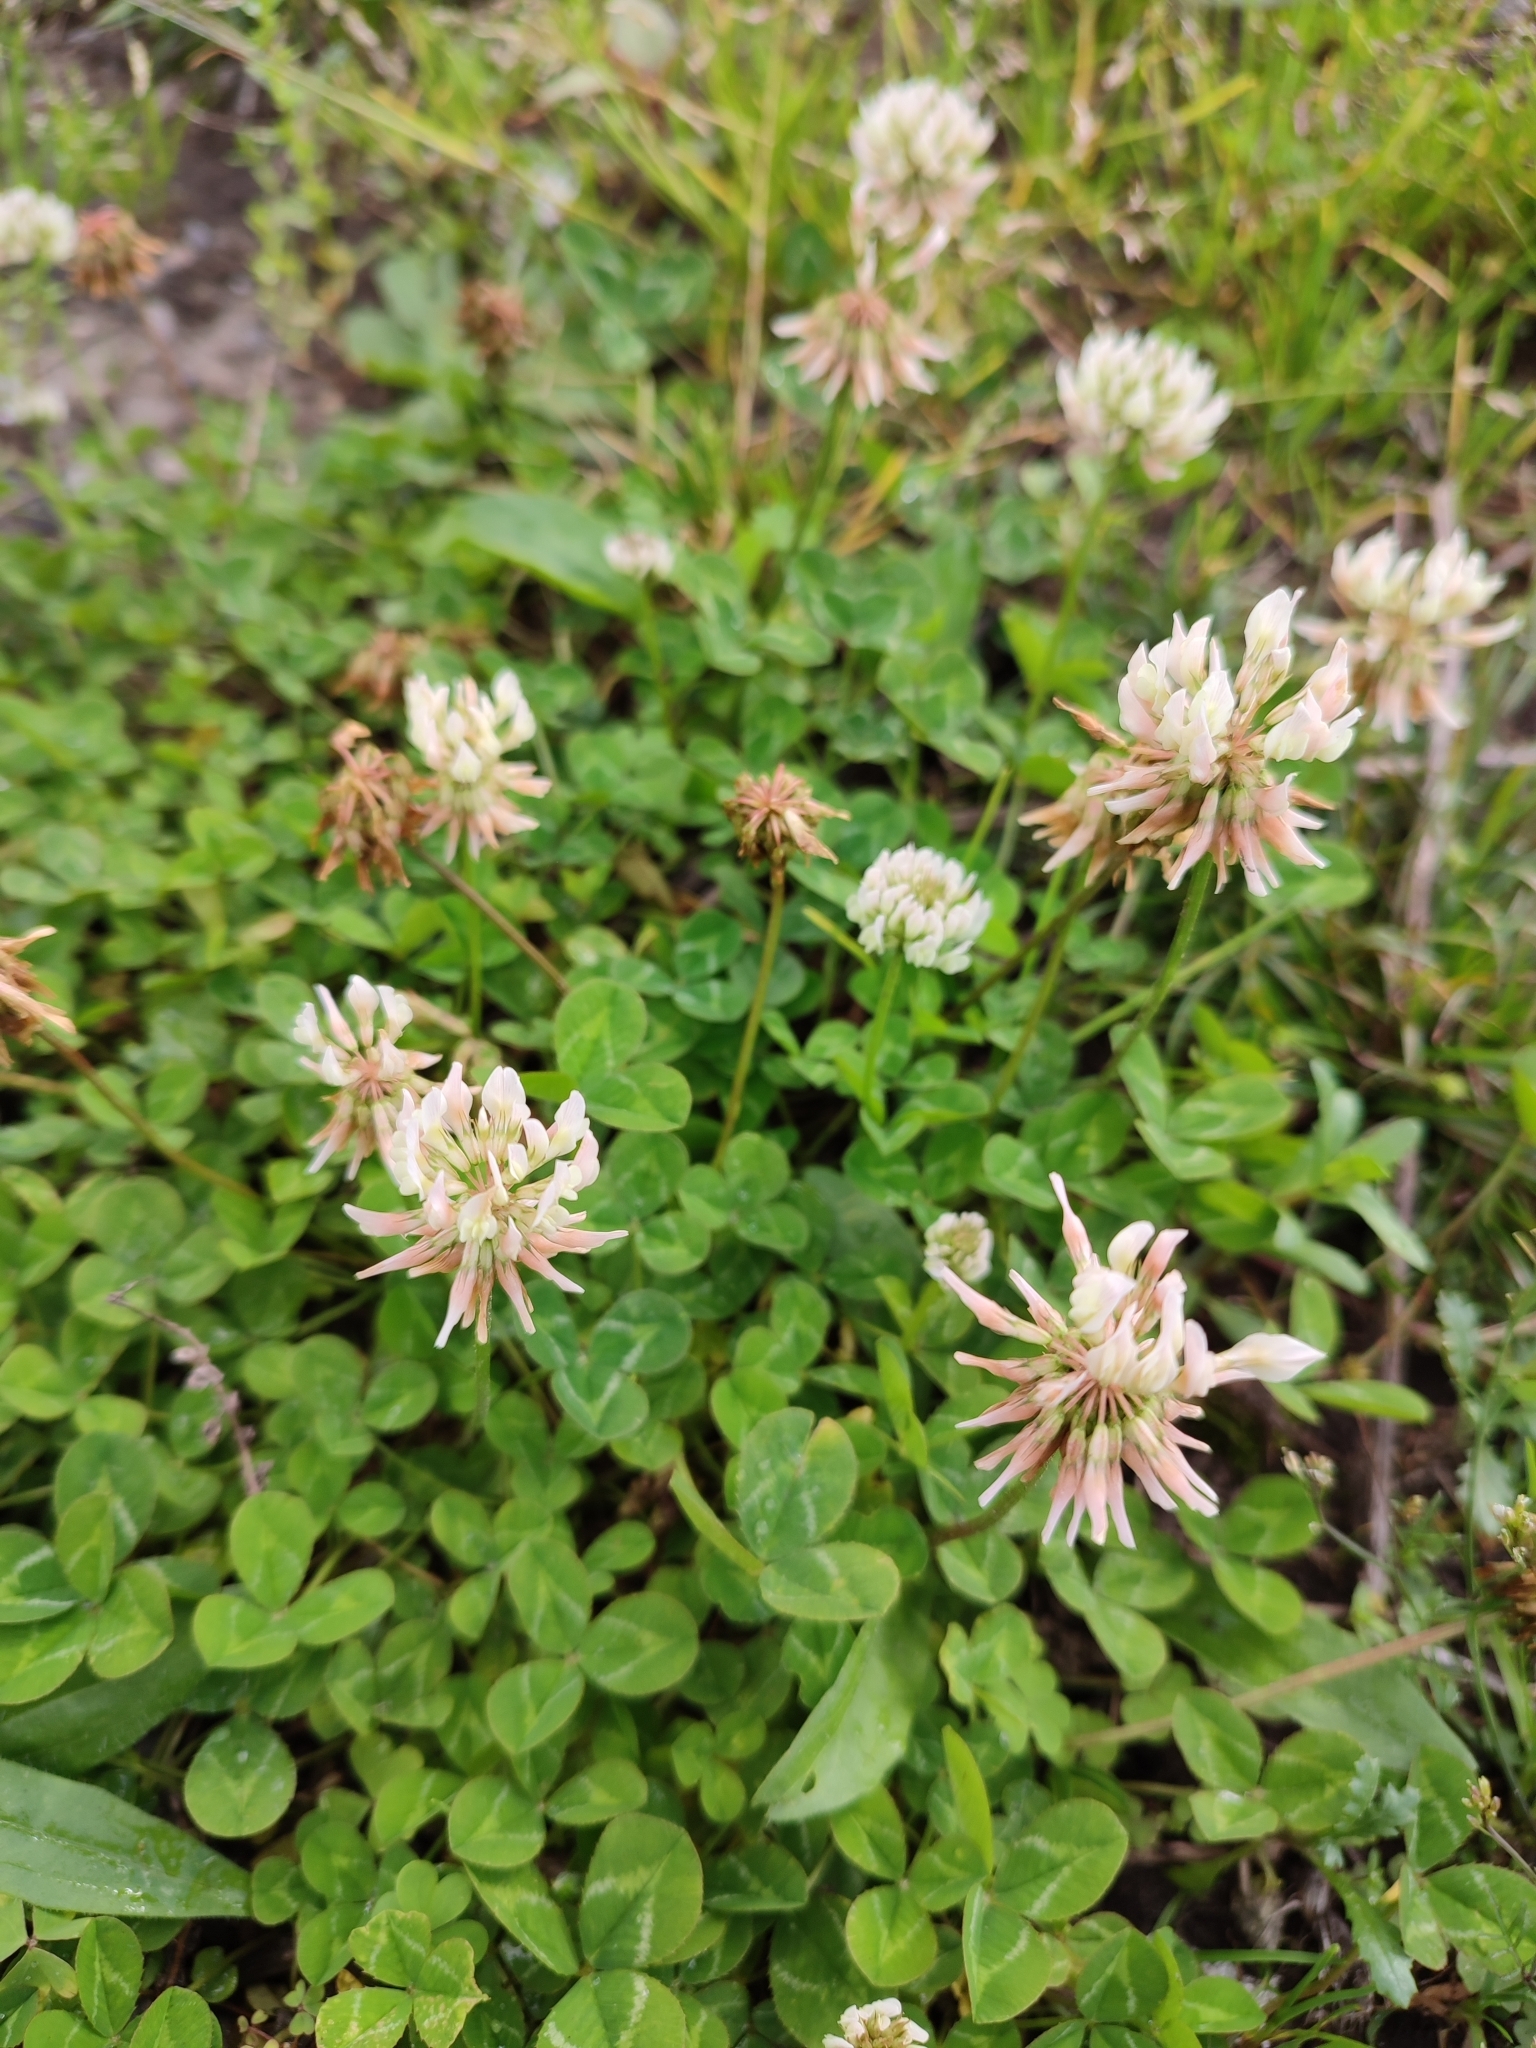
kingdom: Plantae
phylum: Tracheophyta
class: Magnoliopsida
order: Fabales
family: Fabaceae
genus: Trifolium
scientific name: Trifolium repens
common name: White clover
